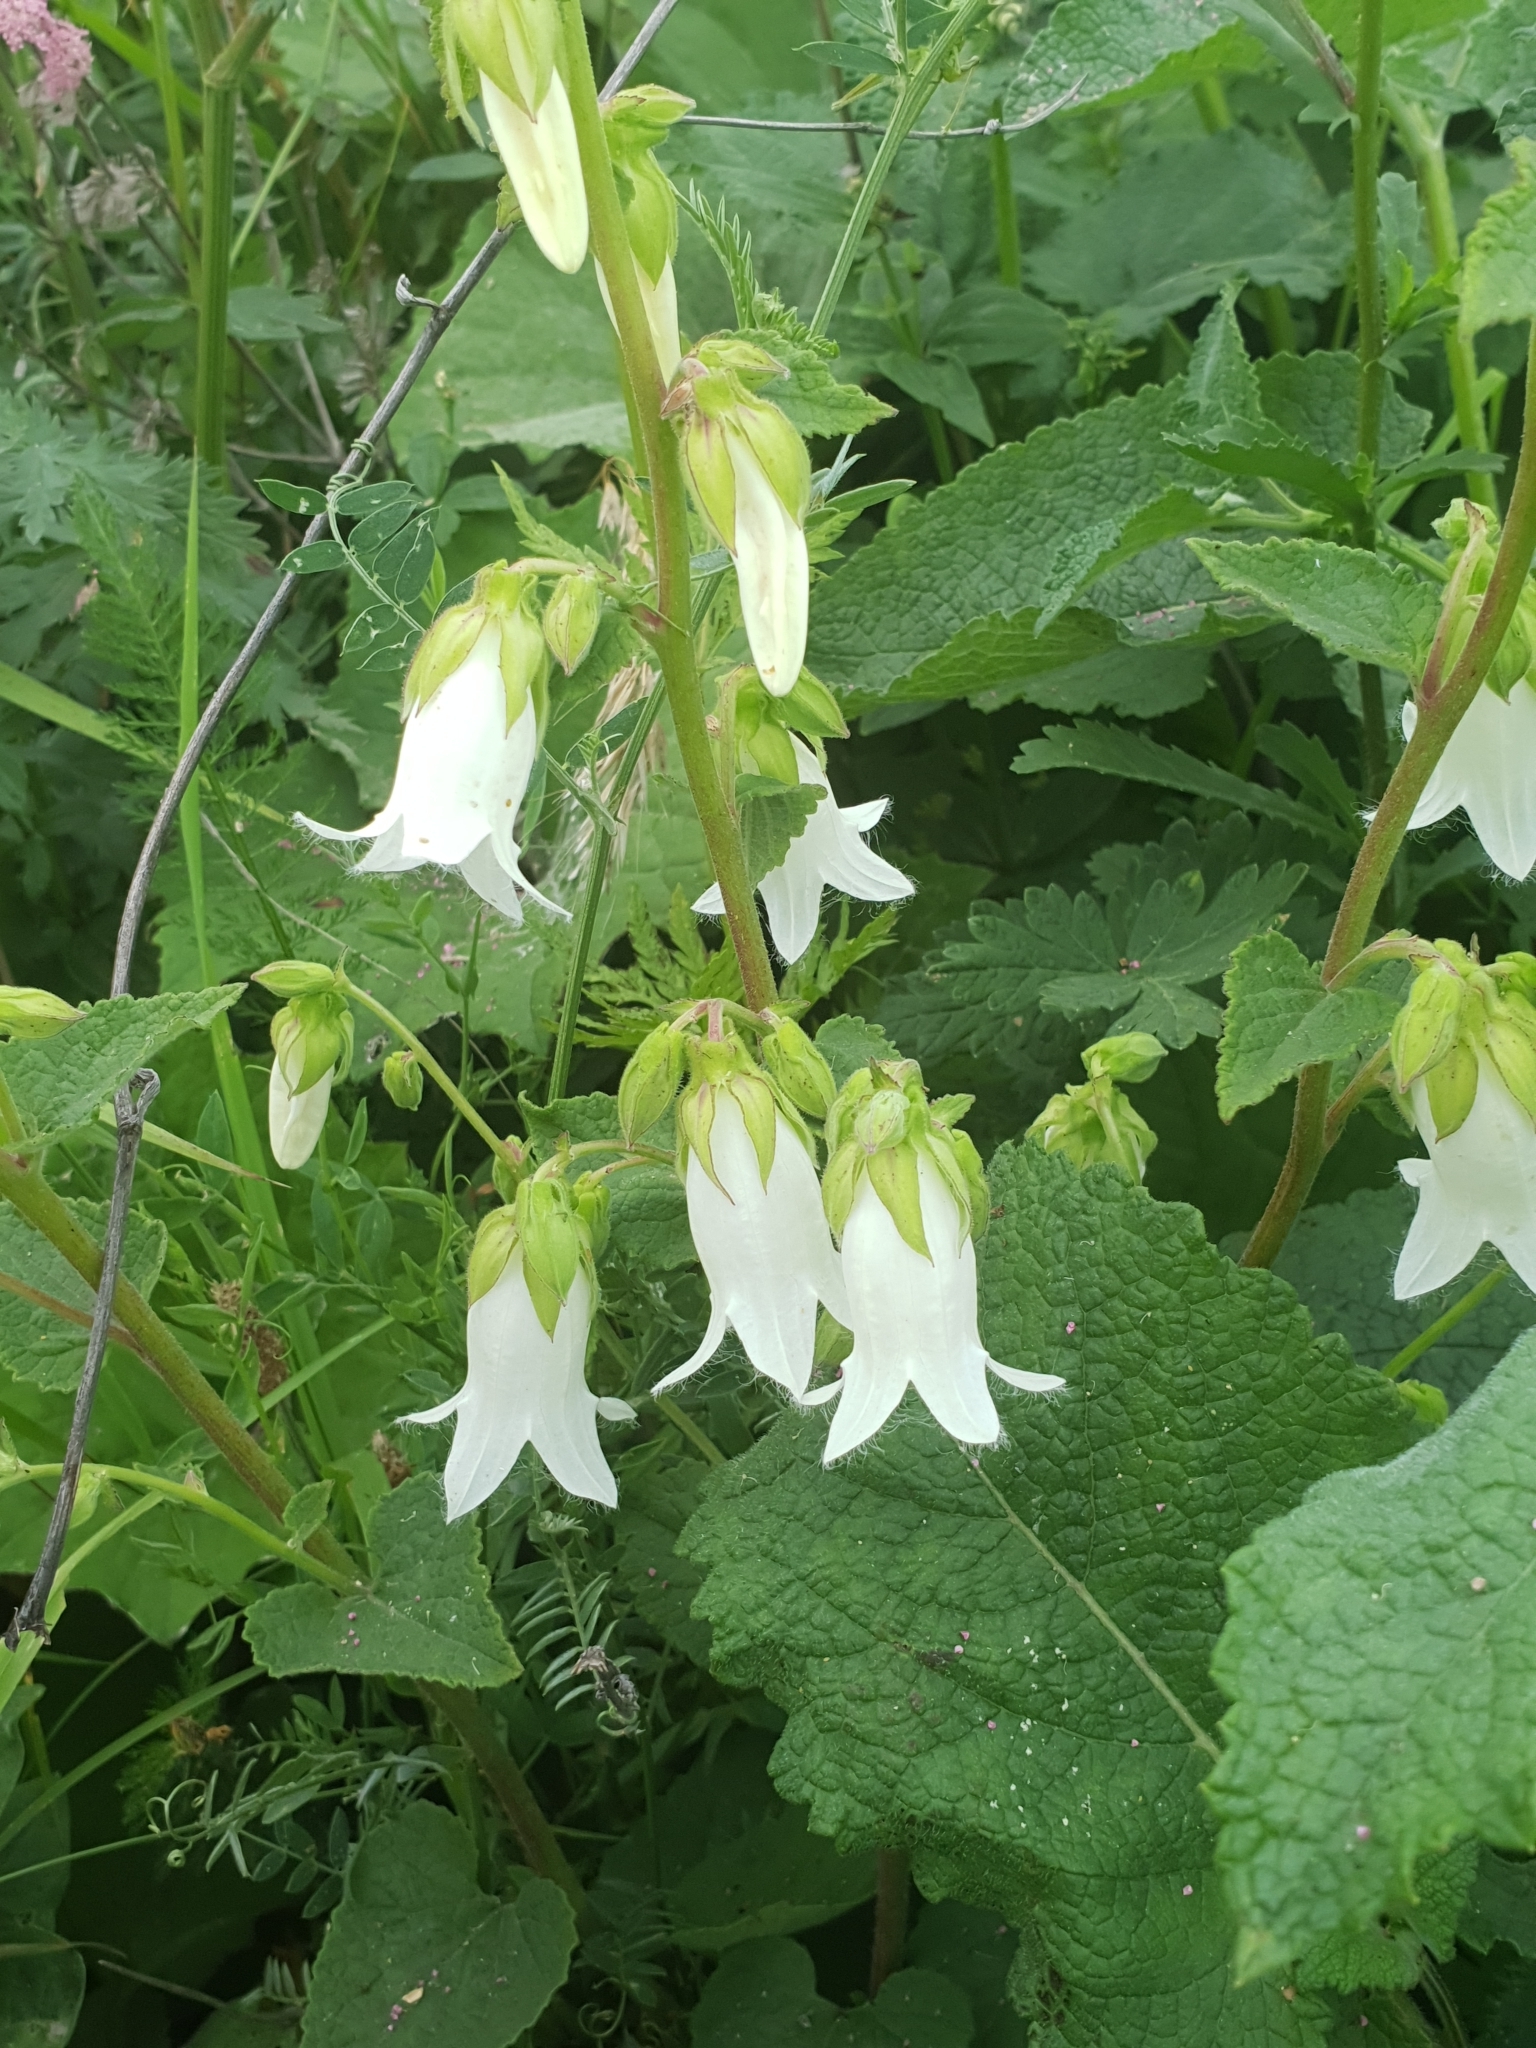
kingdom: Plantae
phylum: Tracheophyta
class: Magnoliopsida
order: Asterales
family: Campanulaceae
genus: Campanula
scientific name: Campanula alliariifolia
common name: Cornish bellflower
